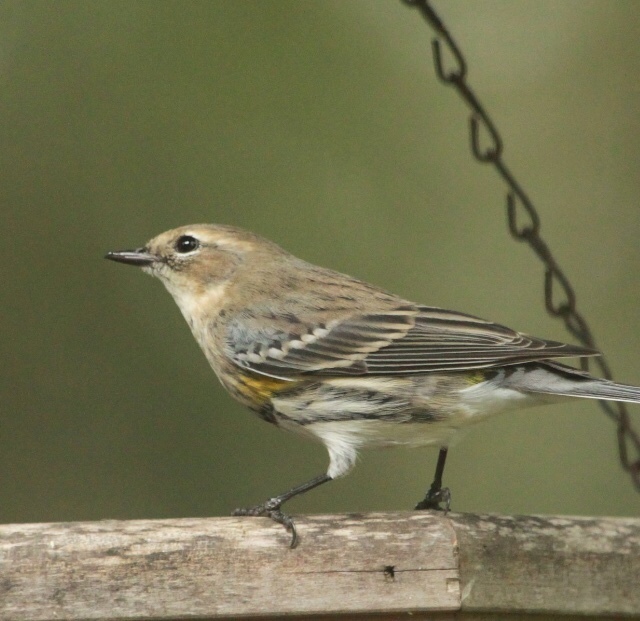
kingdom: Animalia
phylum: Chordata
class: Aves
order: Passeriformes
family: Parulidae
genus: Setophaga
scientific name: Setophaga coronata
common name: Myrtle warbler
